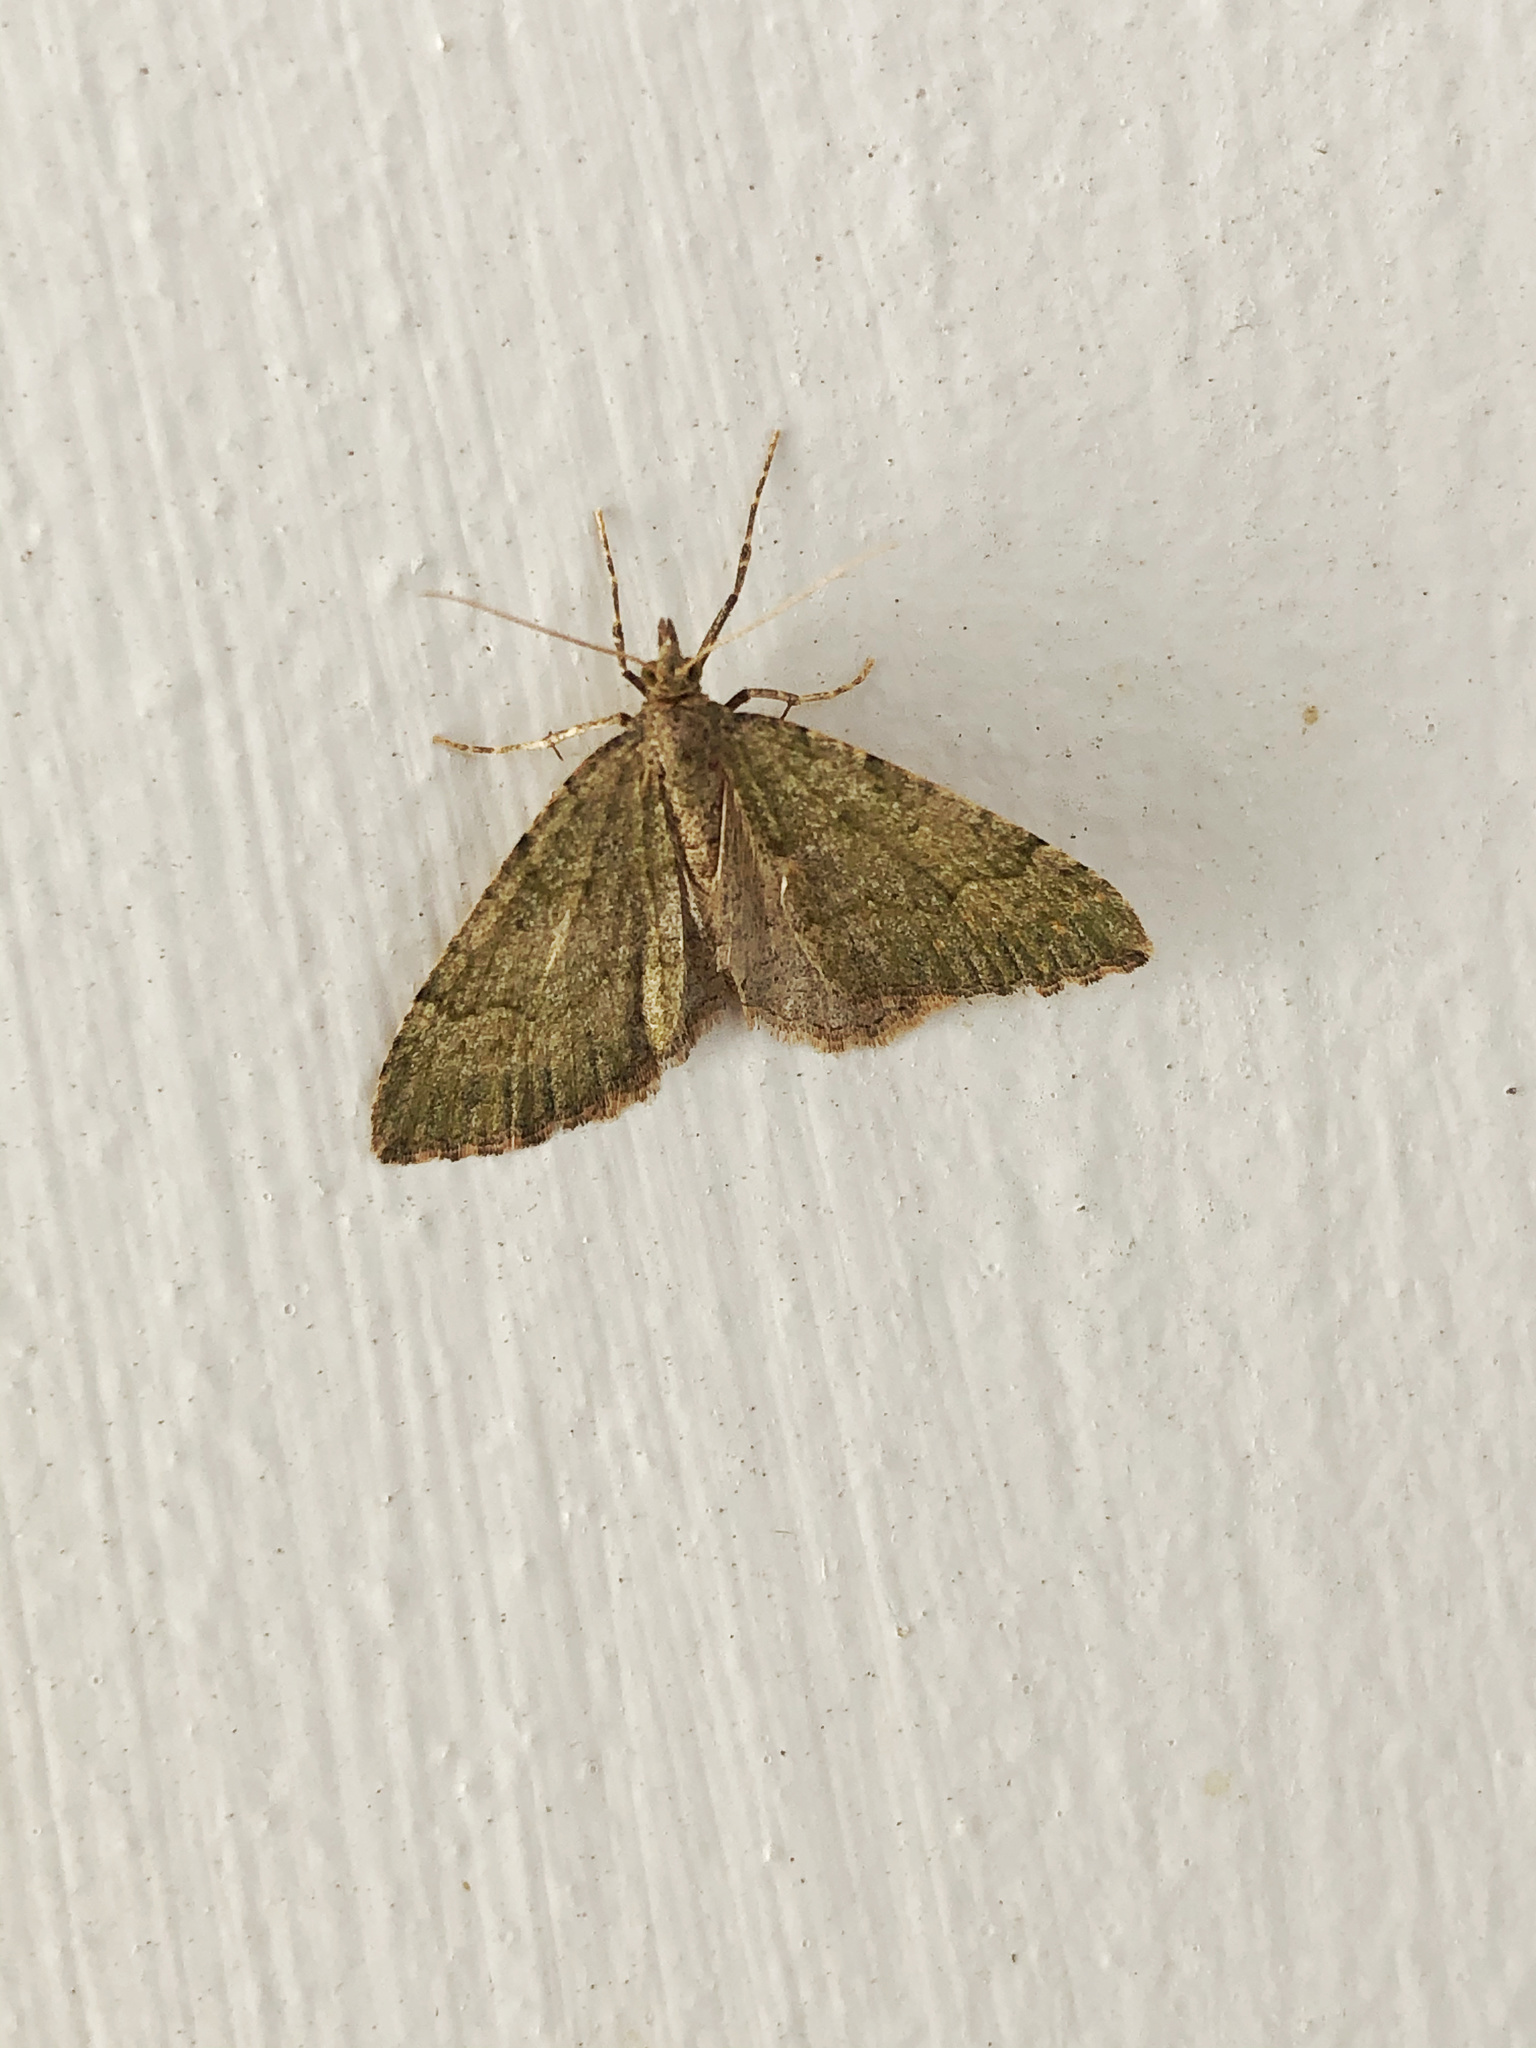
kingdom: Animalia
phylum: Arthropoda
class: Insecta
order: Lepidoptera
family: Geometridae
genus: Epyaxa
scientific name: Epyaxa rosearia
